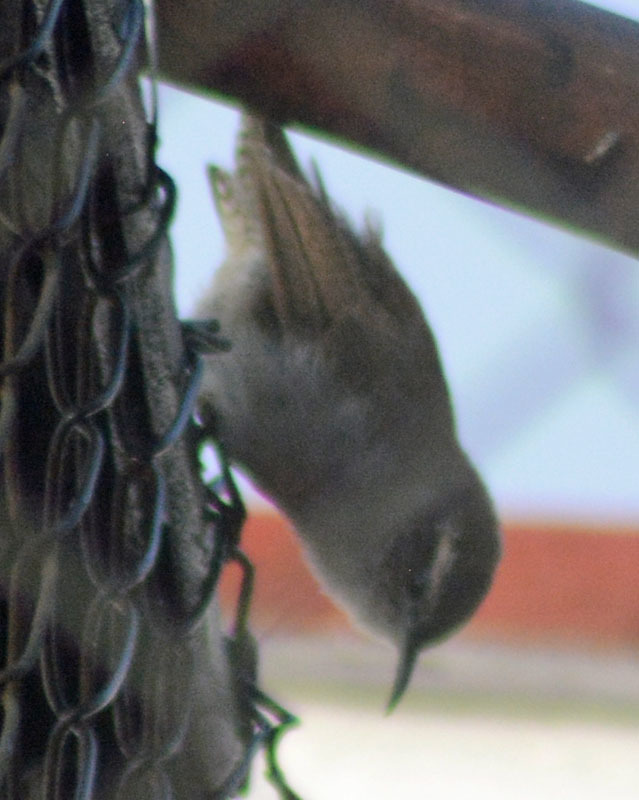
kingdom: Animalia
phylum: Chordata
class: Aves
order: Passeriformes
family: Troglodytidae
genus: Thryomanes
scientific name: Thryomanes bewickii
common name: Bewick's wren
